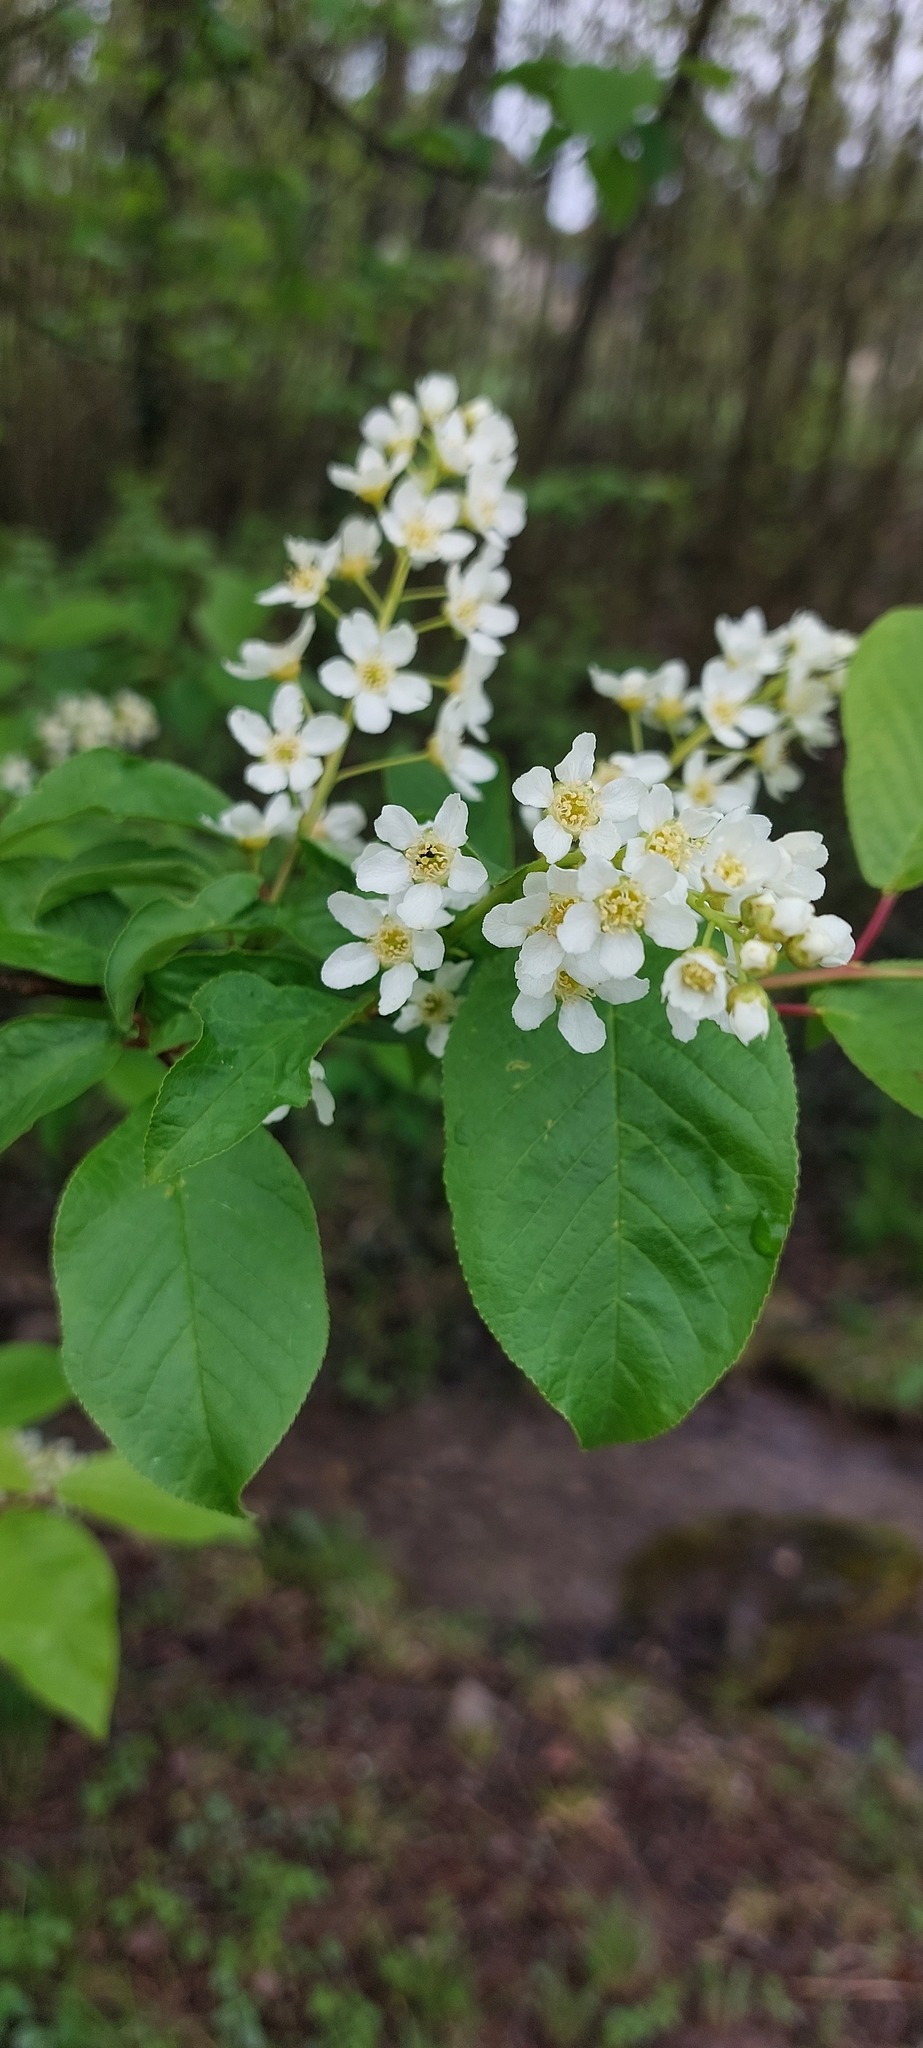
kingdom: Plantae
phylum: Tracheophyta
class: Magnoliopsida
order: Rosales
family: Rosaceae
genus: Prunus
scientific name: Prunus padus
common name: Bird cherry
